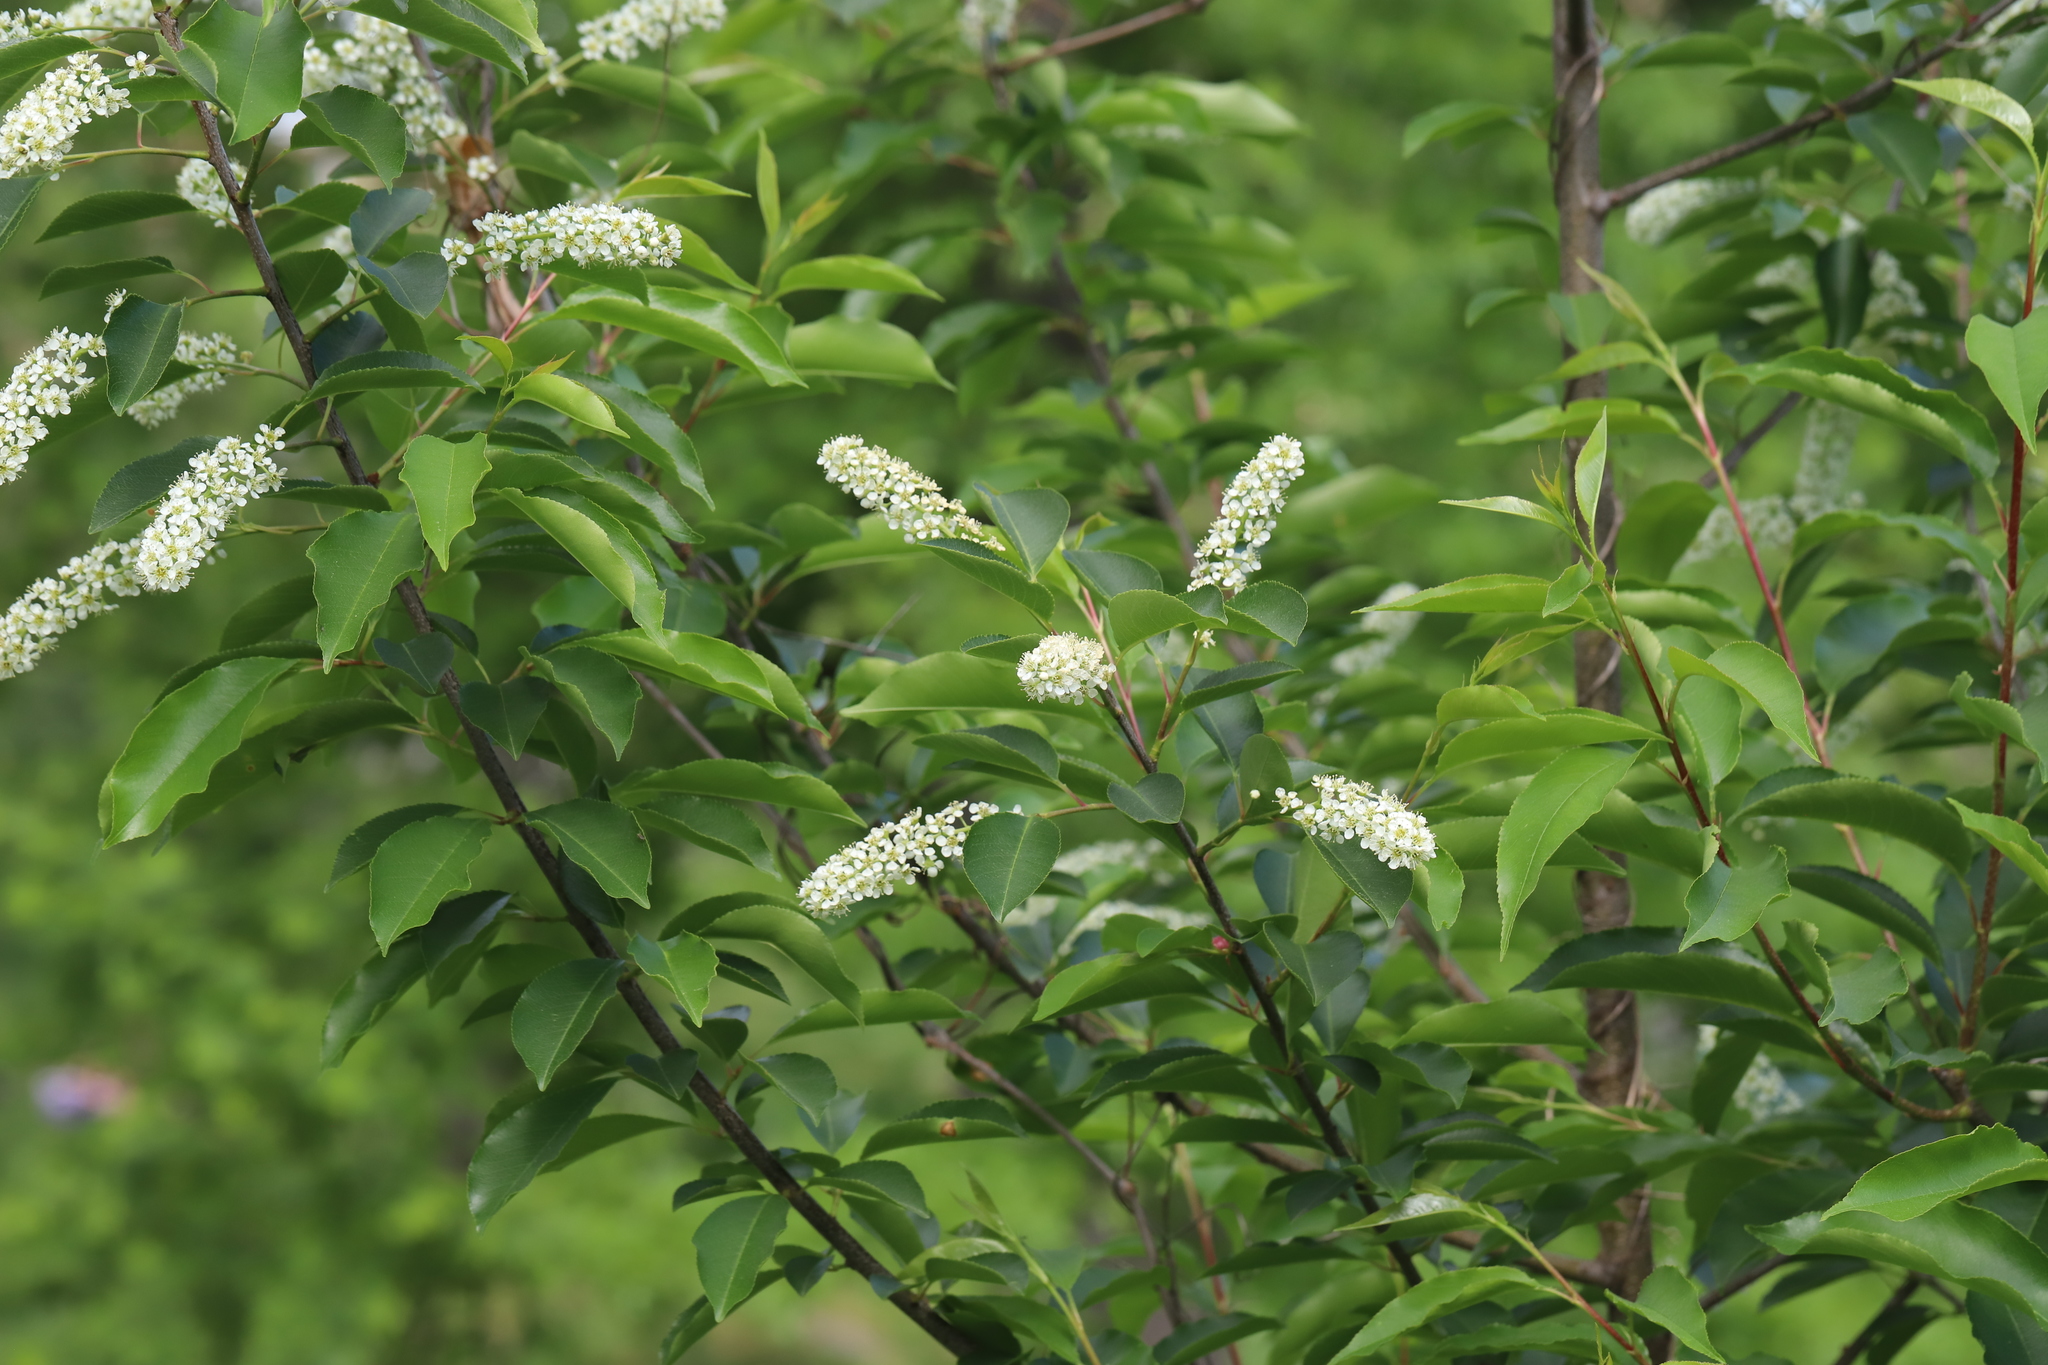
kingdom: Plantae
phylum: Tracheophyta
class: Magnoliopsida
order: Rosales
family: Rosaceae
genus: Prunus
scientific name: Prunus serotina
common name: Black cherry
